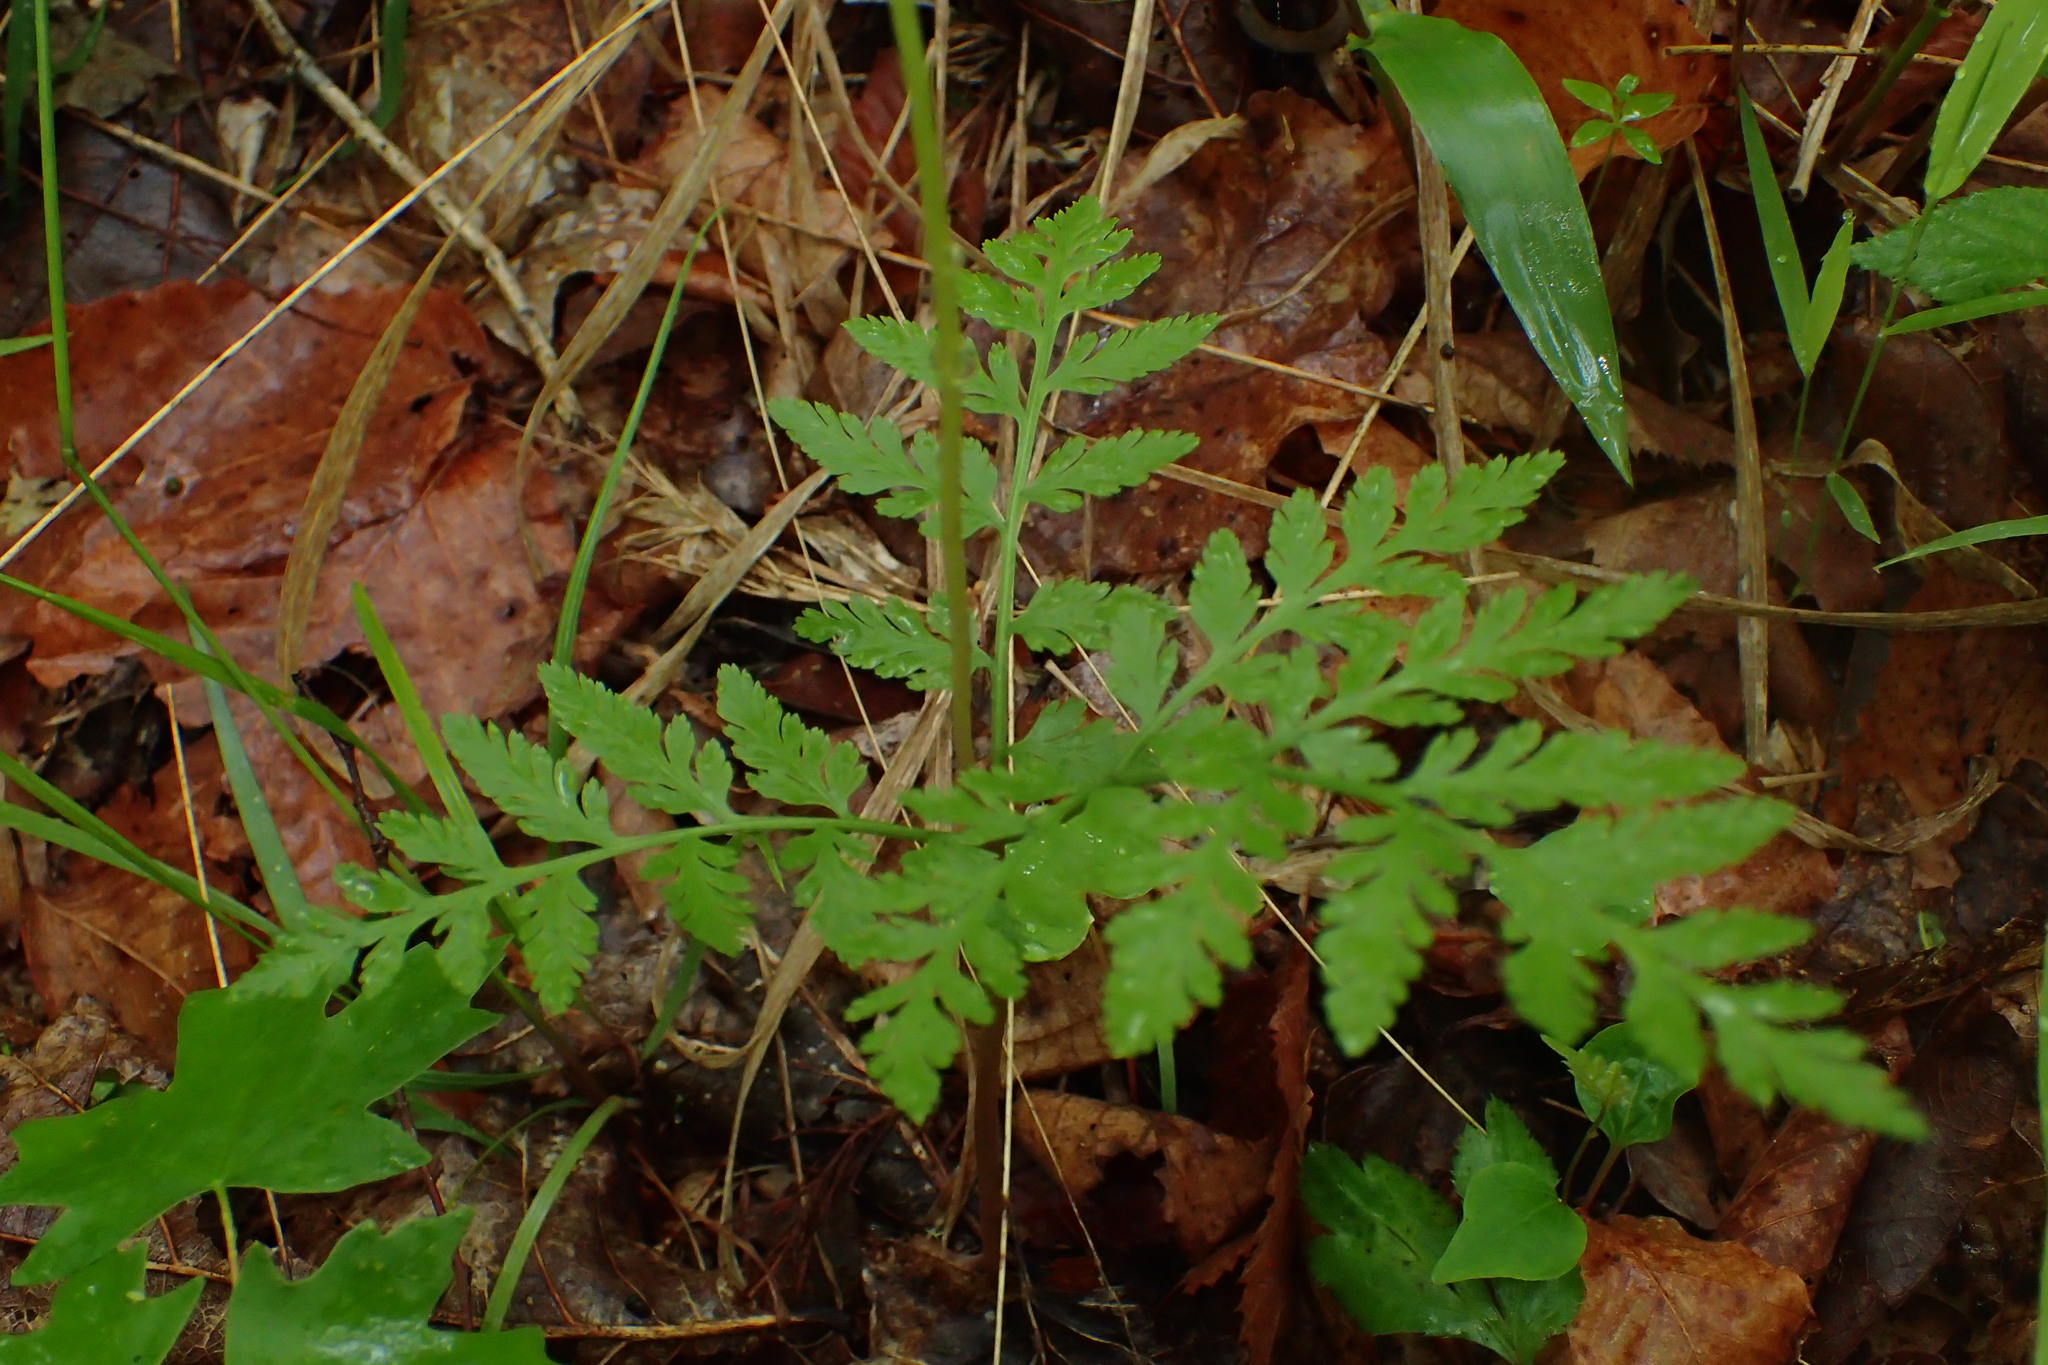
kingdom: Plantae
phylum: Tracheophyta
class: Polypodiopsida
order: Ophioglossales
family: Ophioglossaceae
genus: Botrypus
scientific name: Botrypus virginianus
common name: Common grapefern
